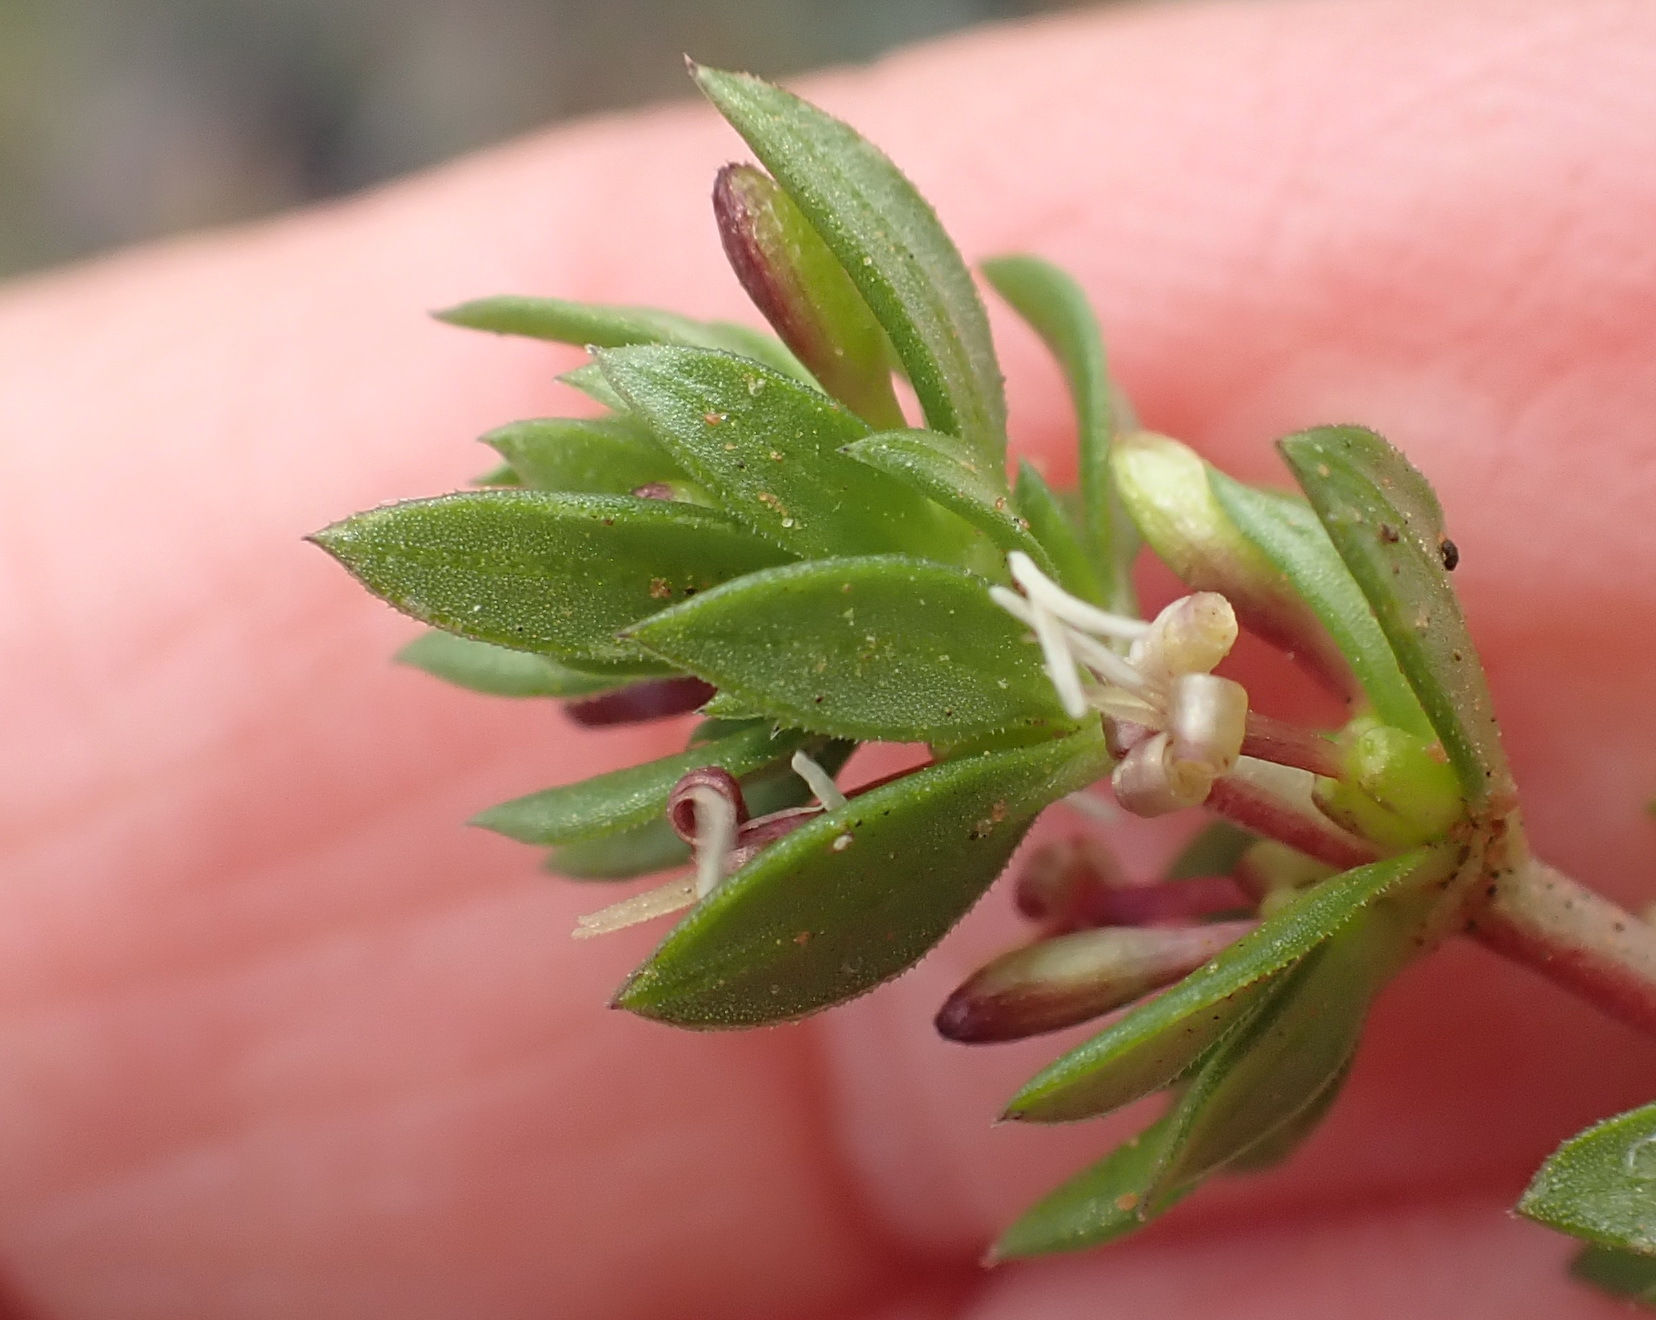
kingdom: Plantae
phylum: Tracheophyta
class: Magnoliopsida
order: Gentianales
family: Rubiaceae
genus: Anthospermum
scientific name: Anthospermum galioides
